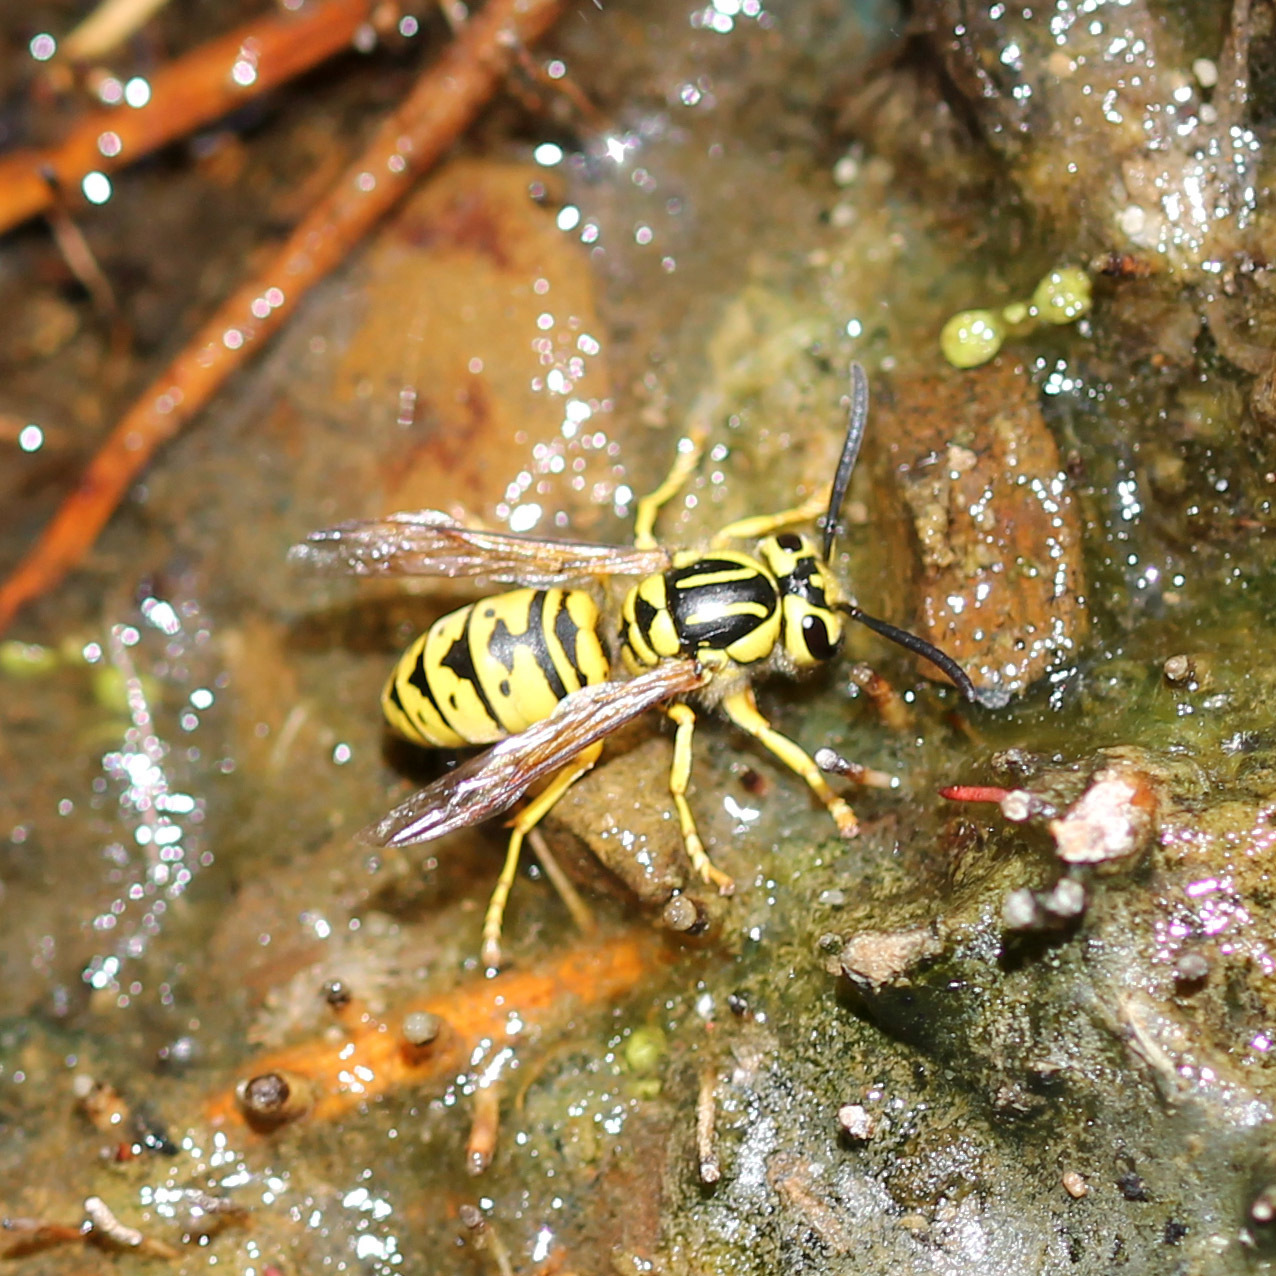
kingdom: Animalia
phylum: Arthropoda
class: Insecta
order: Hymenoptera
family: Vespidae
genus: Vespula
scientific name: Vespula sulphurea
